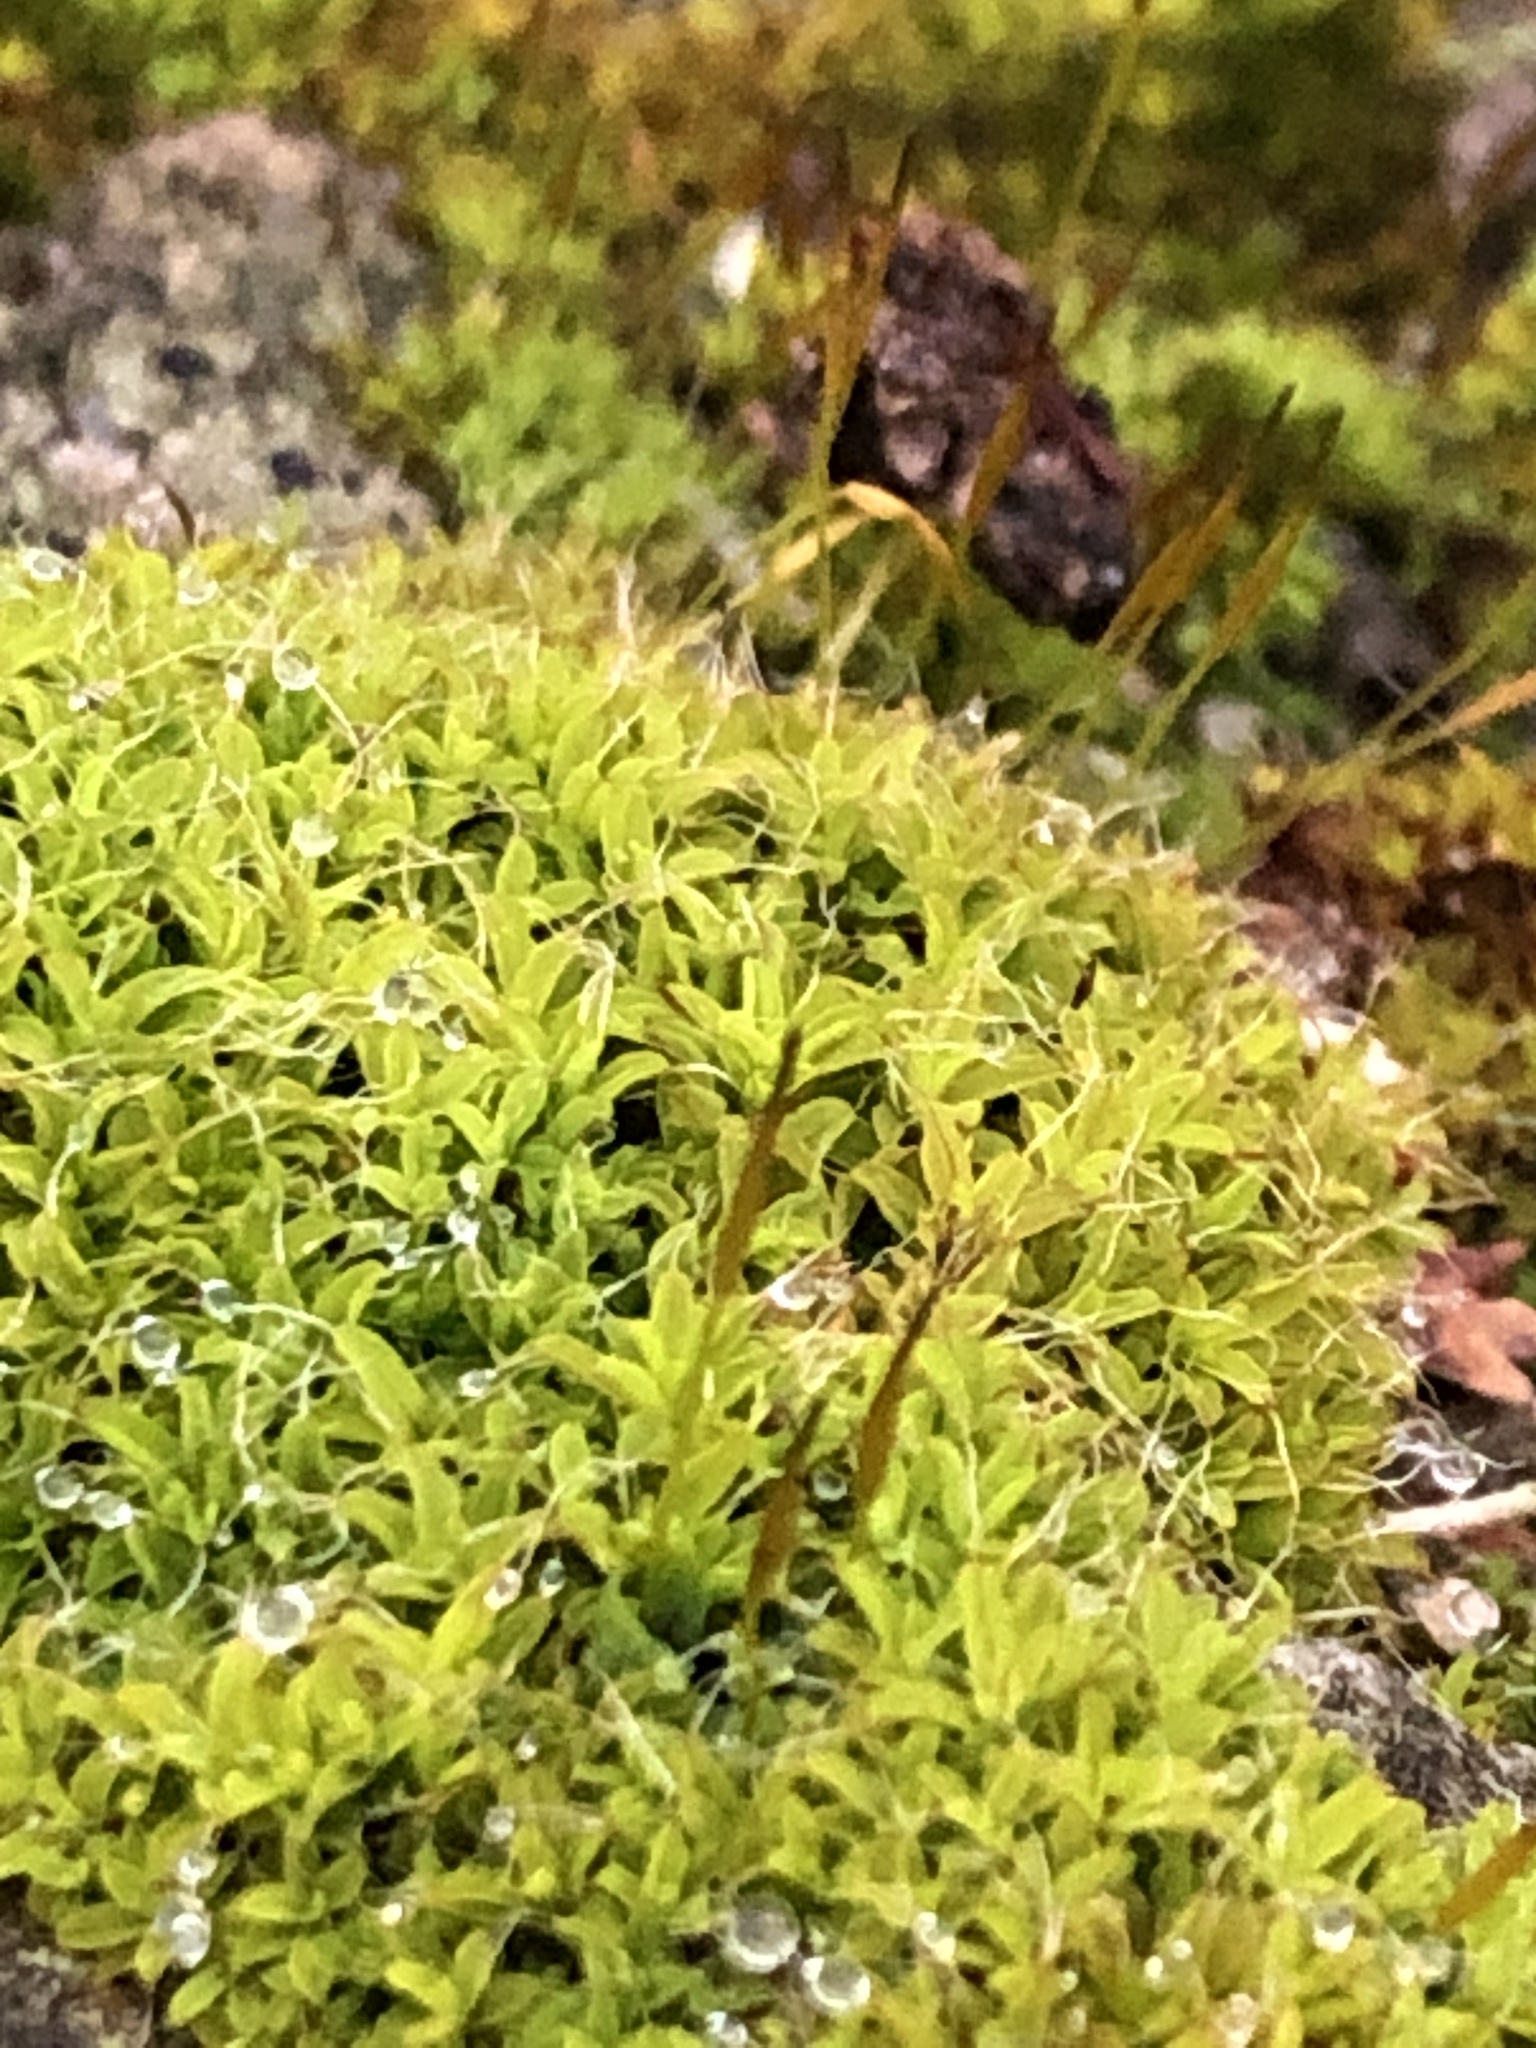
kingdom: Plantae
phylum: Bryophyta
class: Bryopsida
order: Pottiales
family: Pottiaceae
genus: Tortula
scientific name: Tortula muralis
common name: Wall screw-moss
